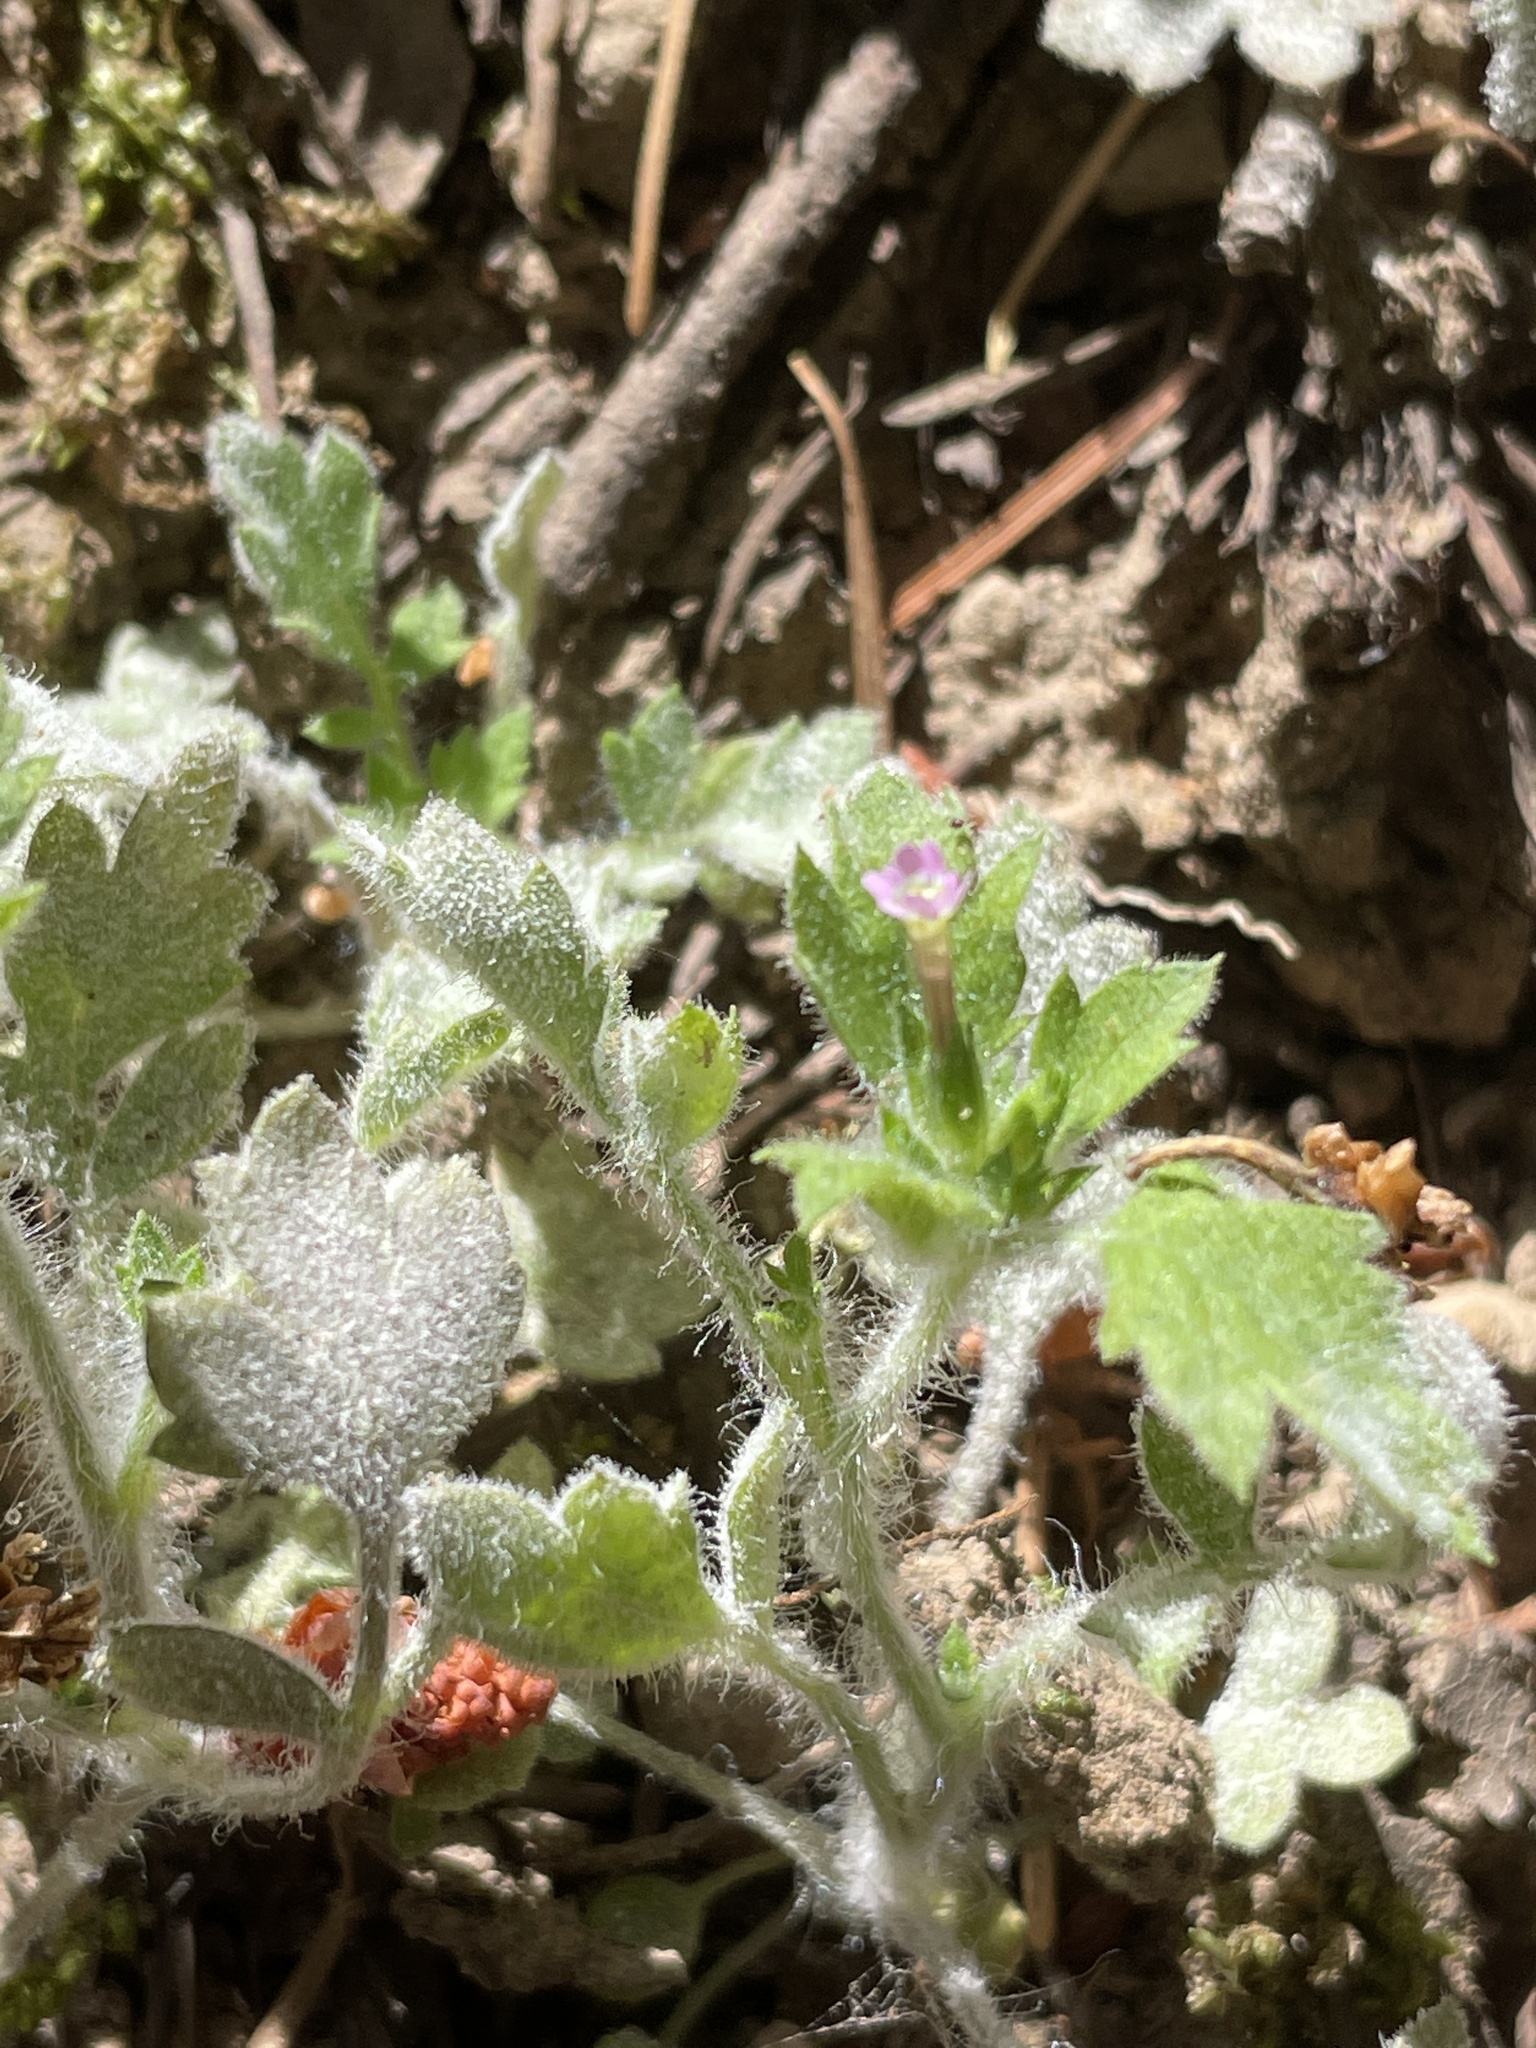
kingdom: Plantae
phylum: Tracheophyta
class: Magnoliopsida
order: Ericales
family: Polemoniaceae
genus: Collomia
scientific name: Collomia heterophylla
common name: Variable-leaved collomia
